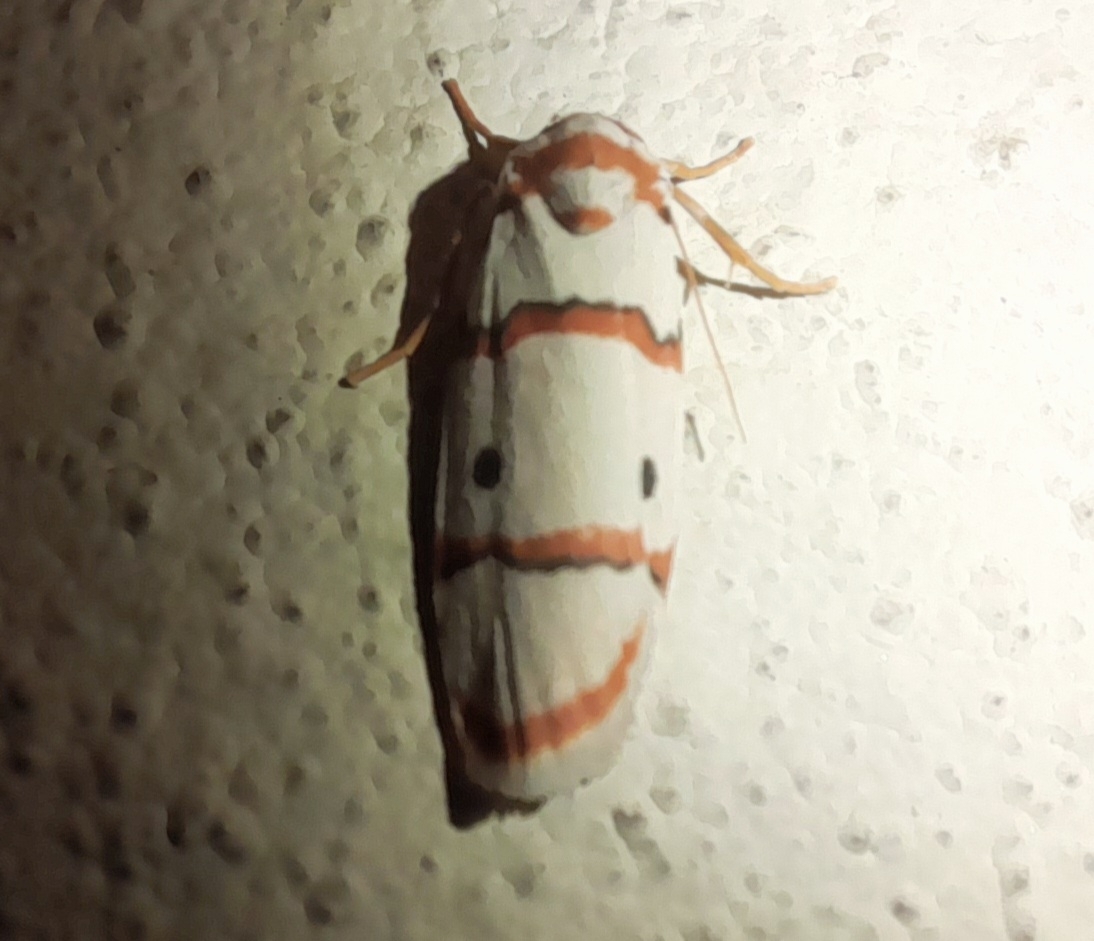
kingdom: Animalia
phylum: Arthropoda
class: Insecta
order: Lepidoptera
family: Erebidae
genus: Cyana
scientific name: Cyana peregrina
